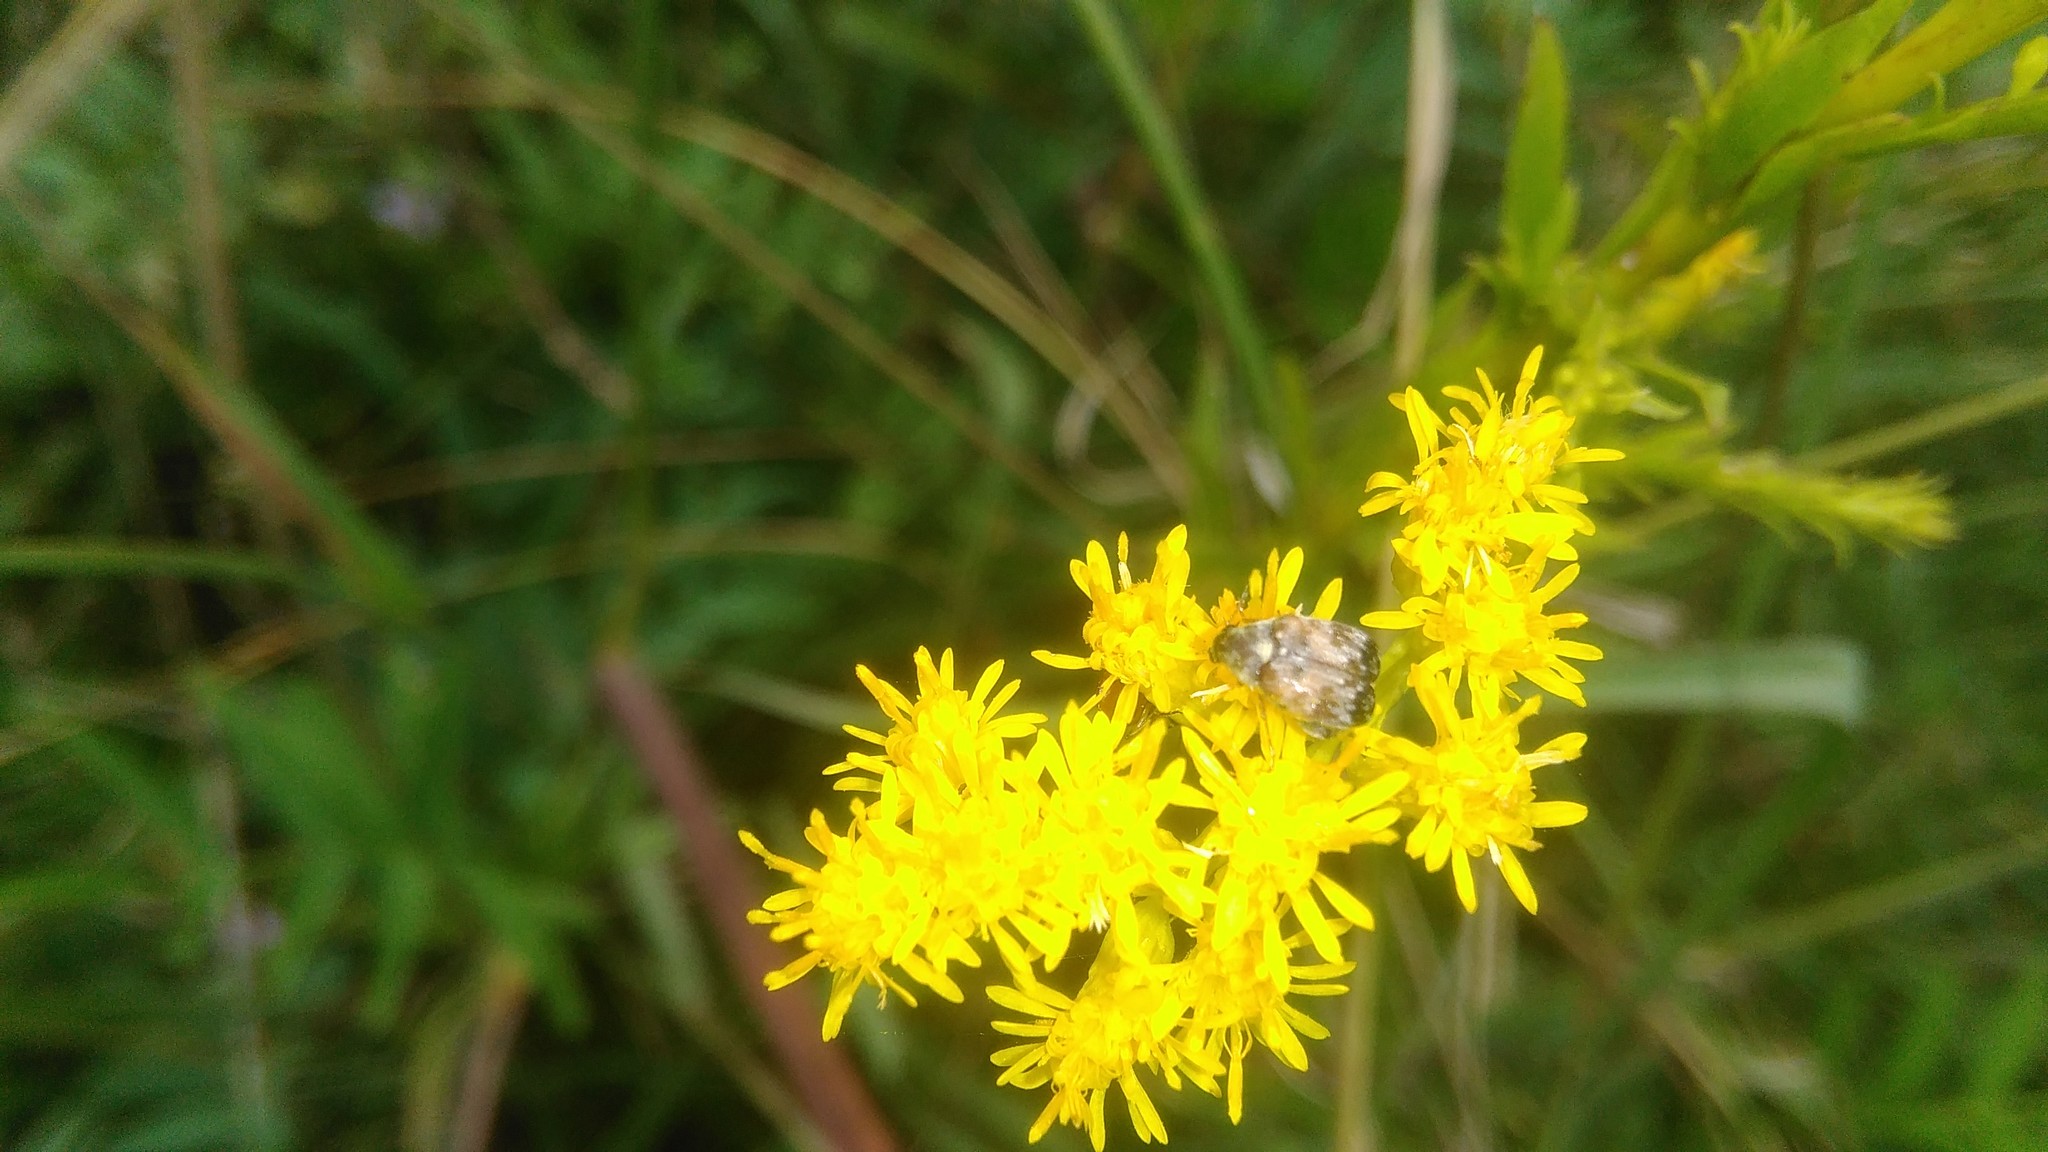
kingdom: Animalia
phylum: Arthropoda
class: Insecta
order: Coleoptera
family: Chrysomelidae
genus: Megabruchidius
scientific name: Megabruchidius tonkineus
